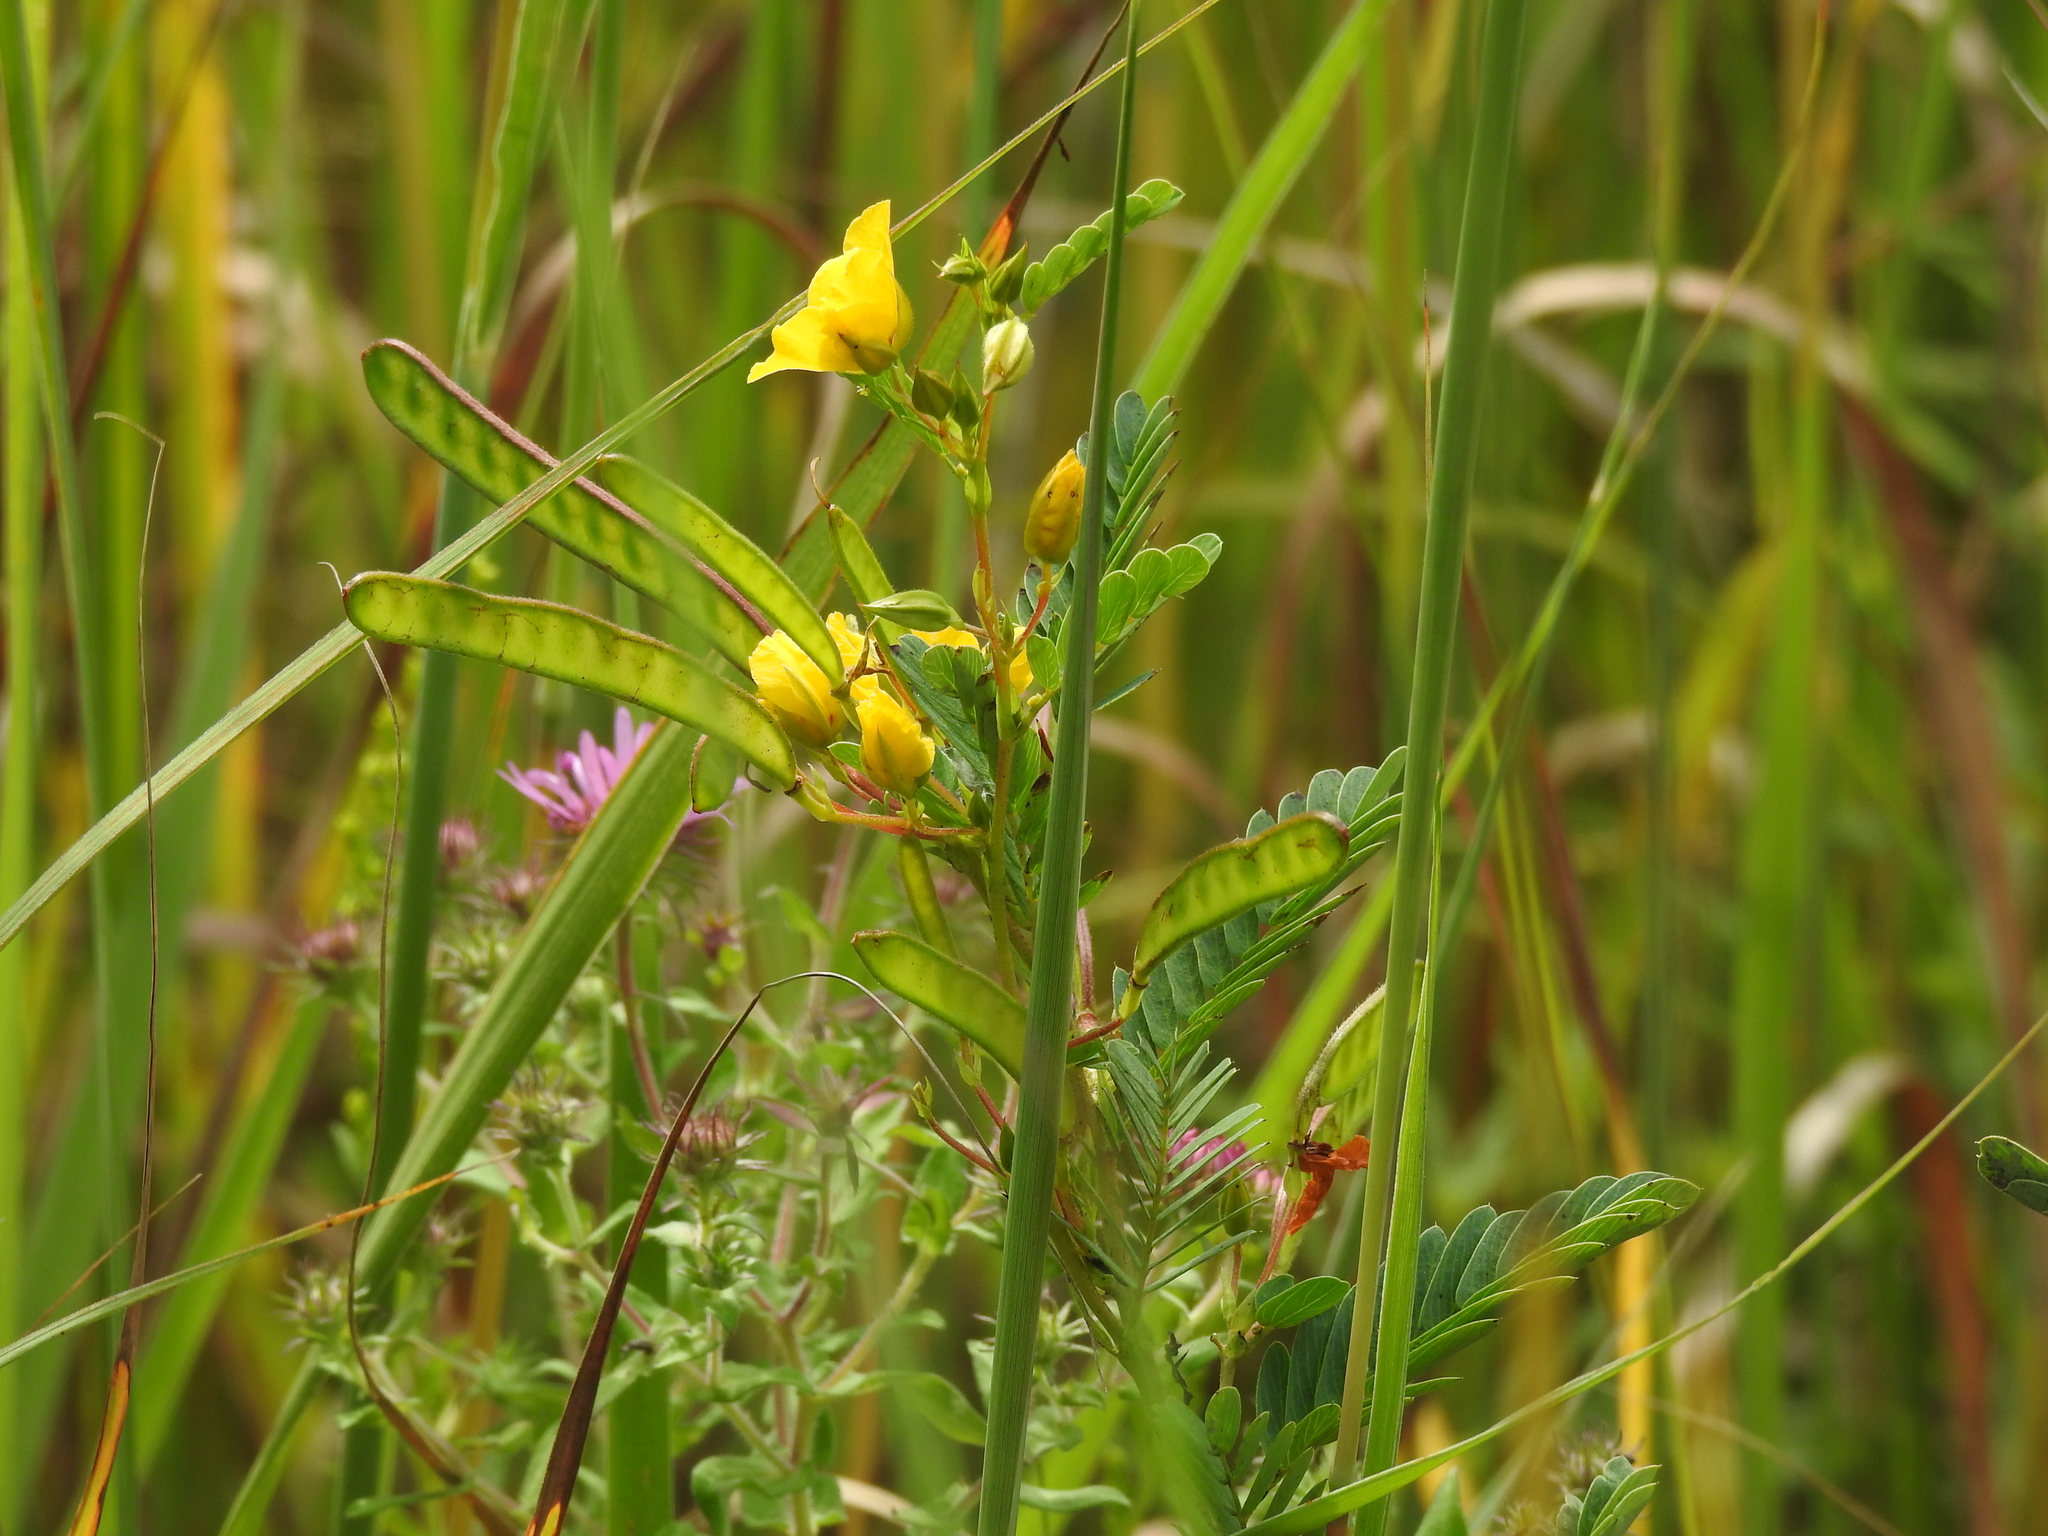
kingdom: Plantae
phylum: Tracheophyta
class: Magnoliopsida
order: Fabales
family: Fabaceae
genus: Chamaecrista
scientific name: Chamaecrista fasciculata
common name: Golden cassia
